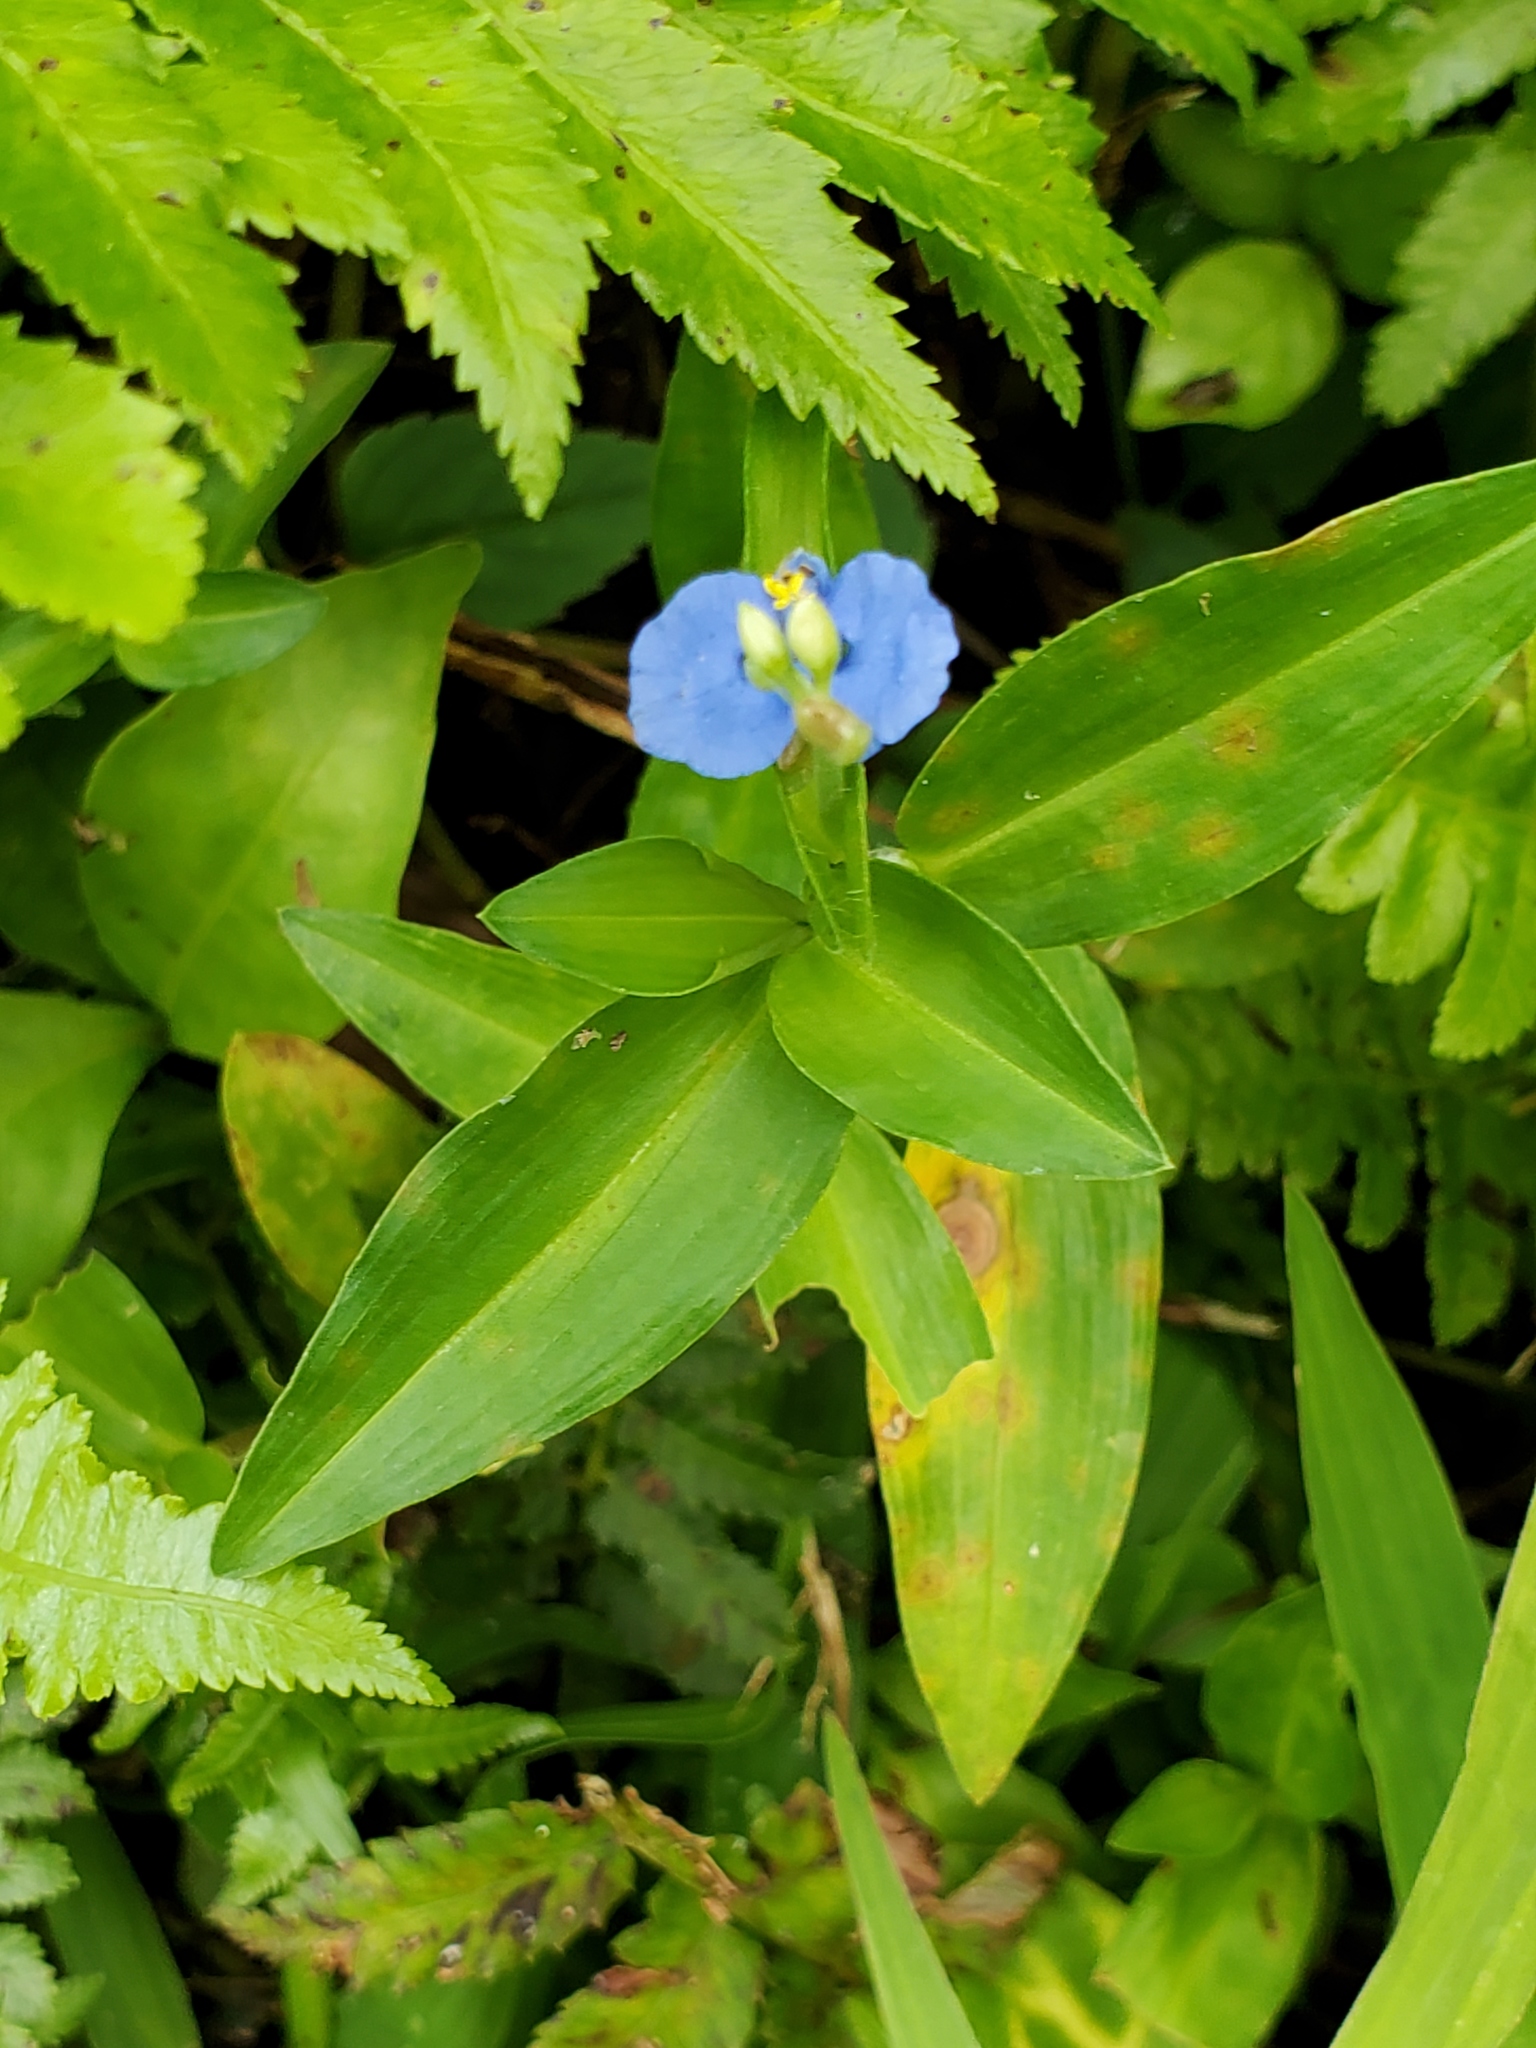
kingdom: Plantae
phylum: Tracheophyta
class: Liliopsida
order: Commelinales
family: Commelinaceae
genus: Commelina
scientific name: Commelina diffusa
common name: Climbing dayflower
